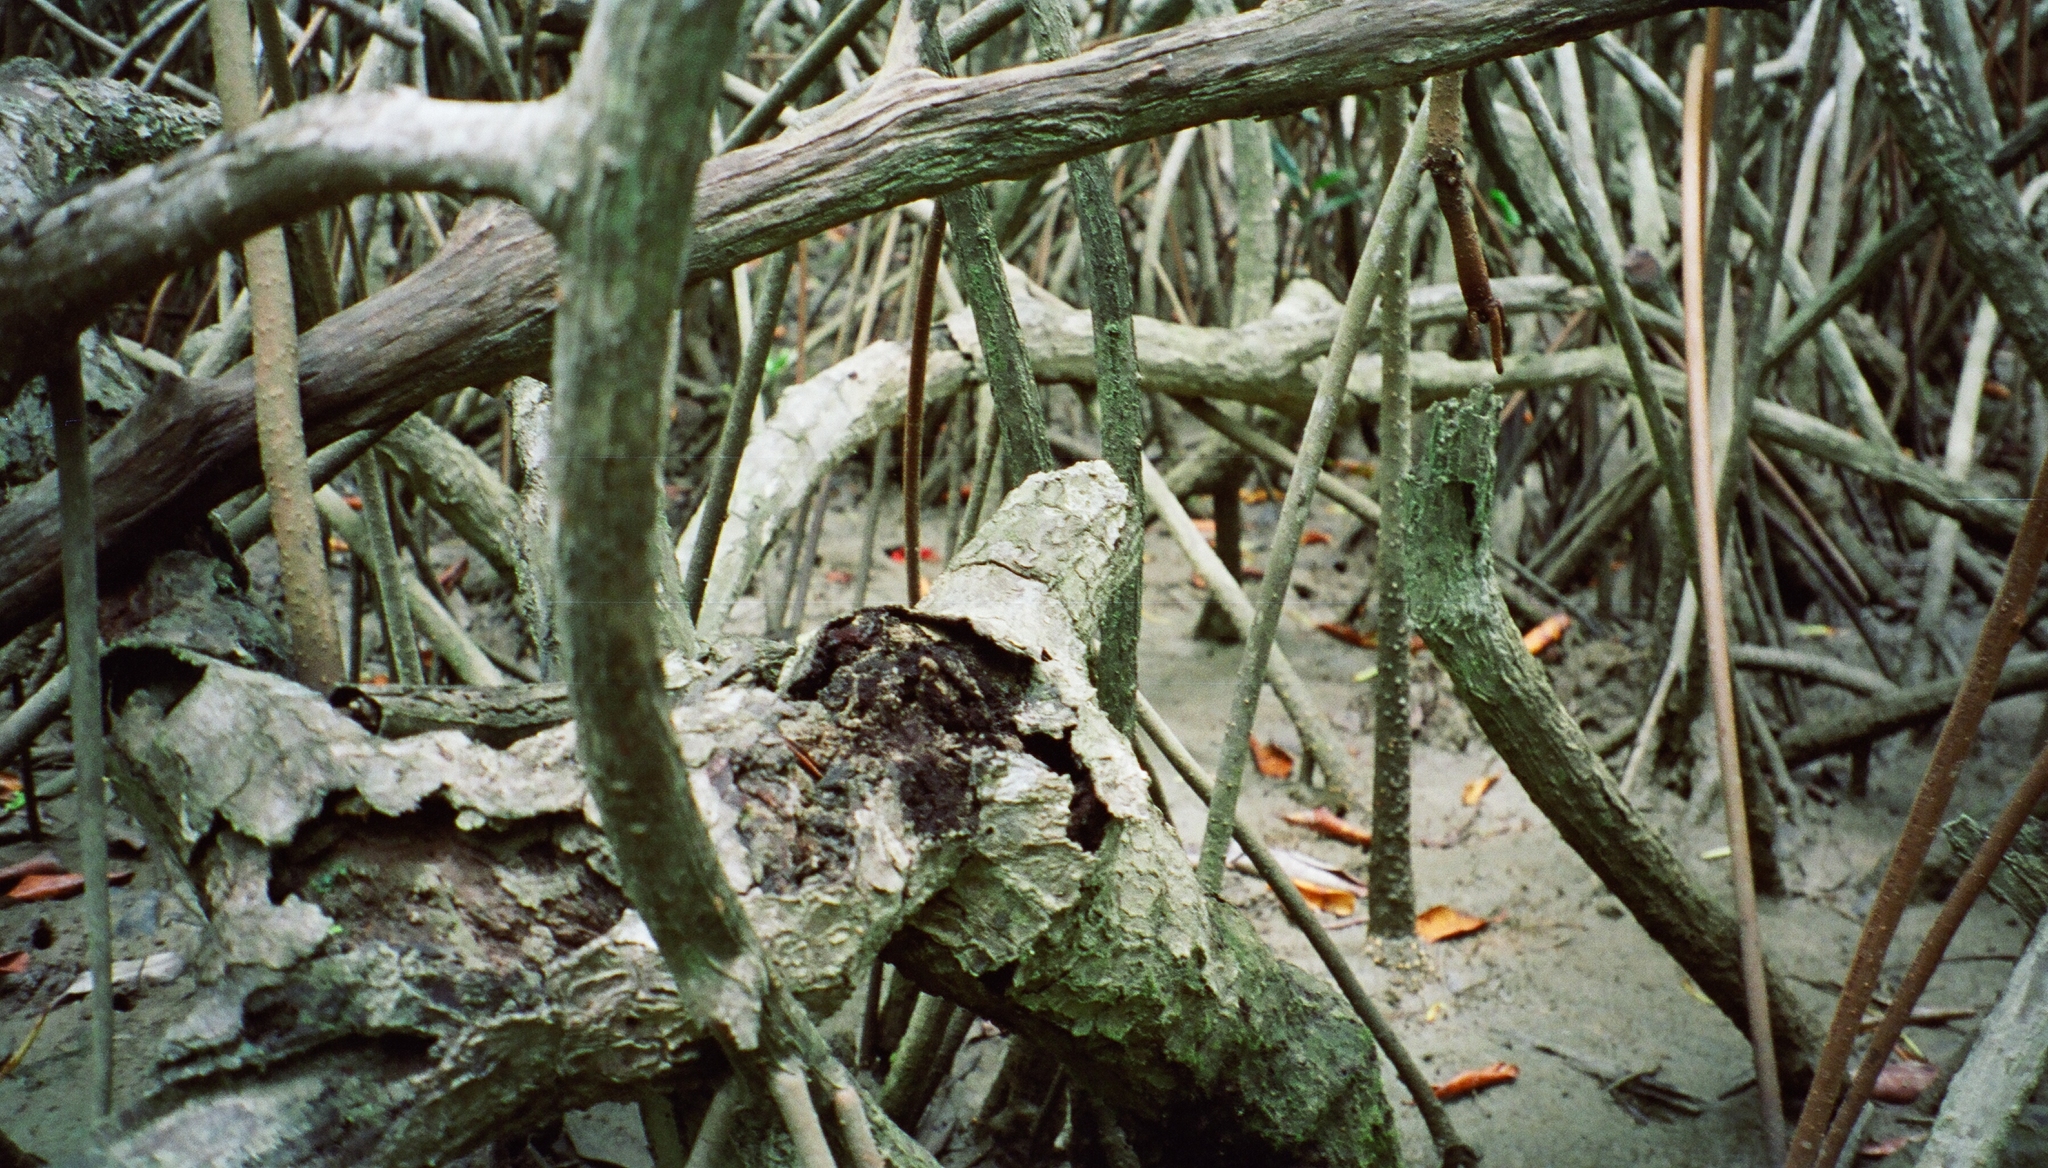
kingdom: Animalia
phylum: Arthropoda
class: Malacostraca
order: Decapoda
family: Grapsidae
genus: Goniopsis
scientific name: Goniopsis pulchra
